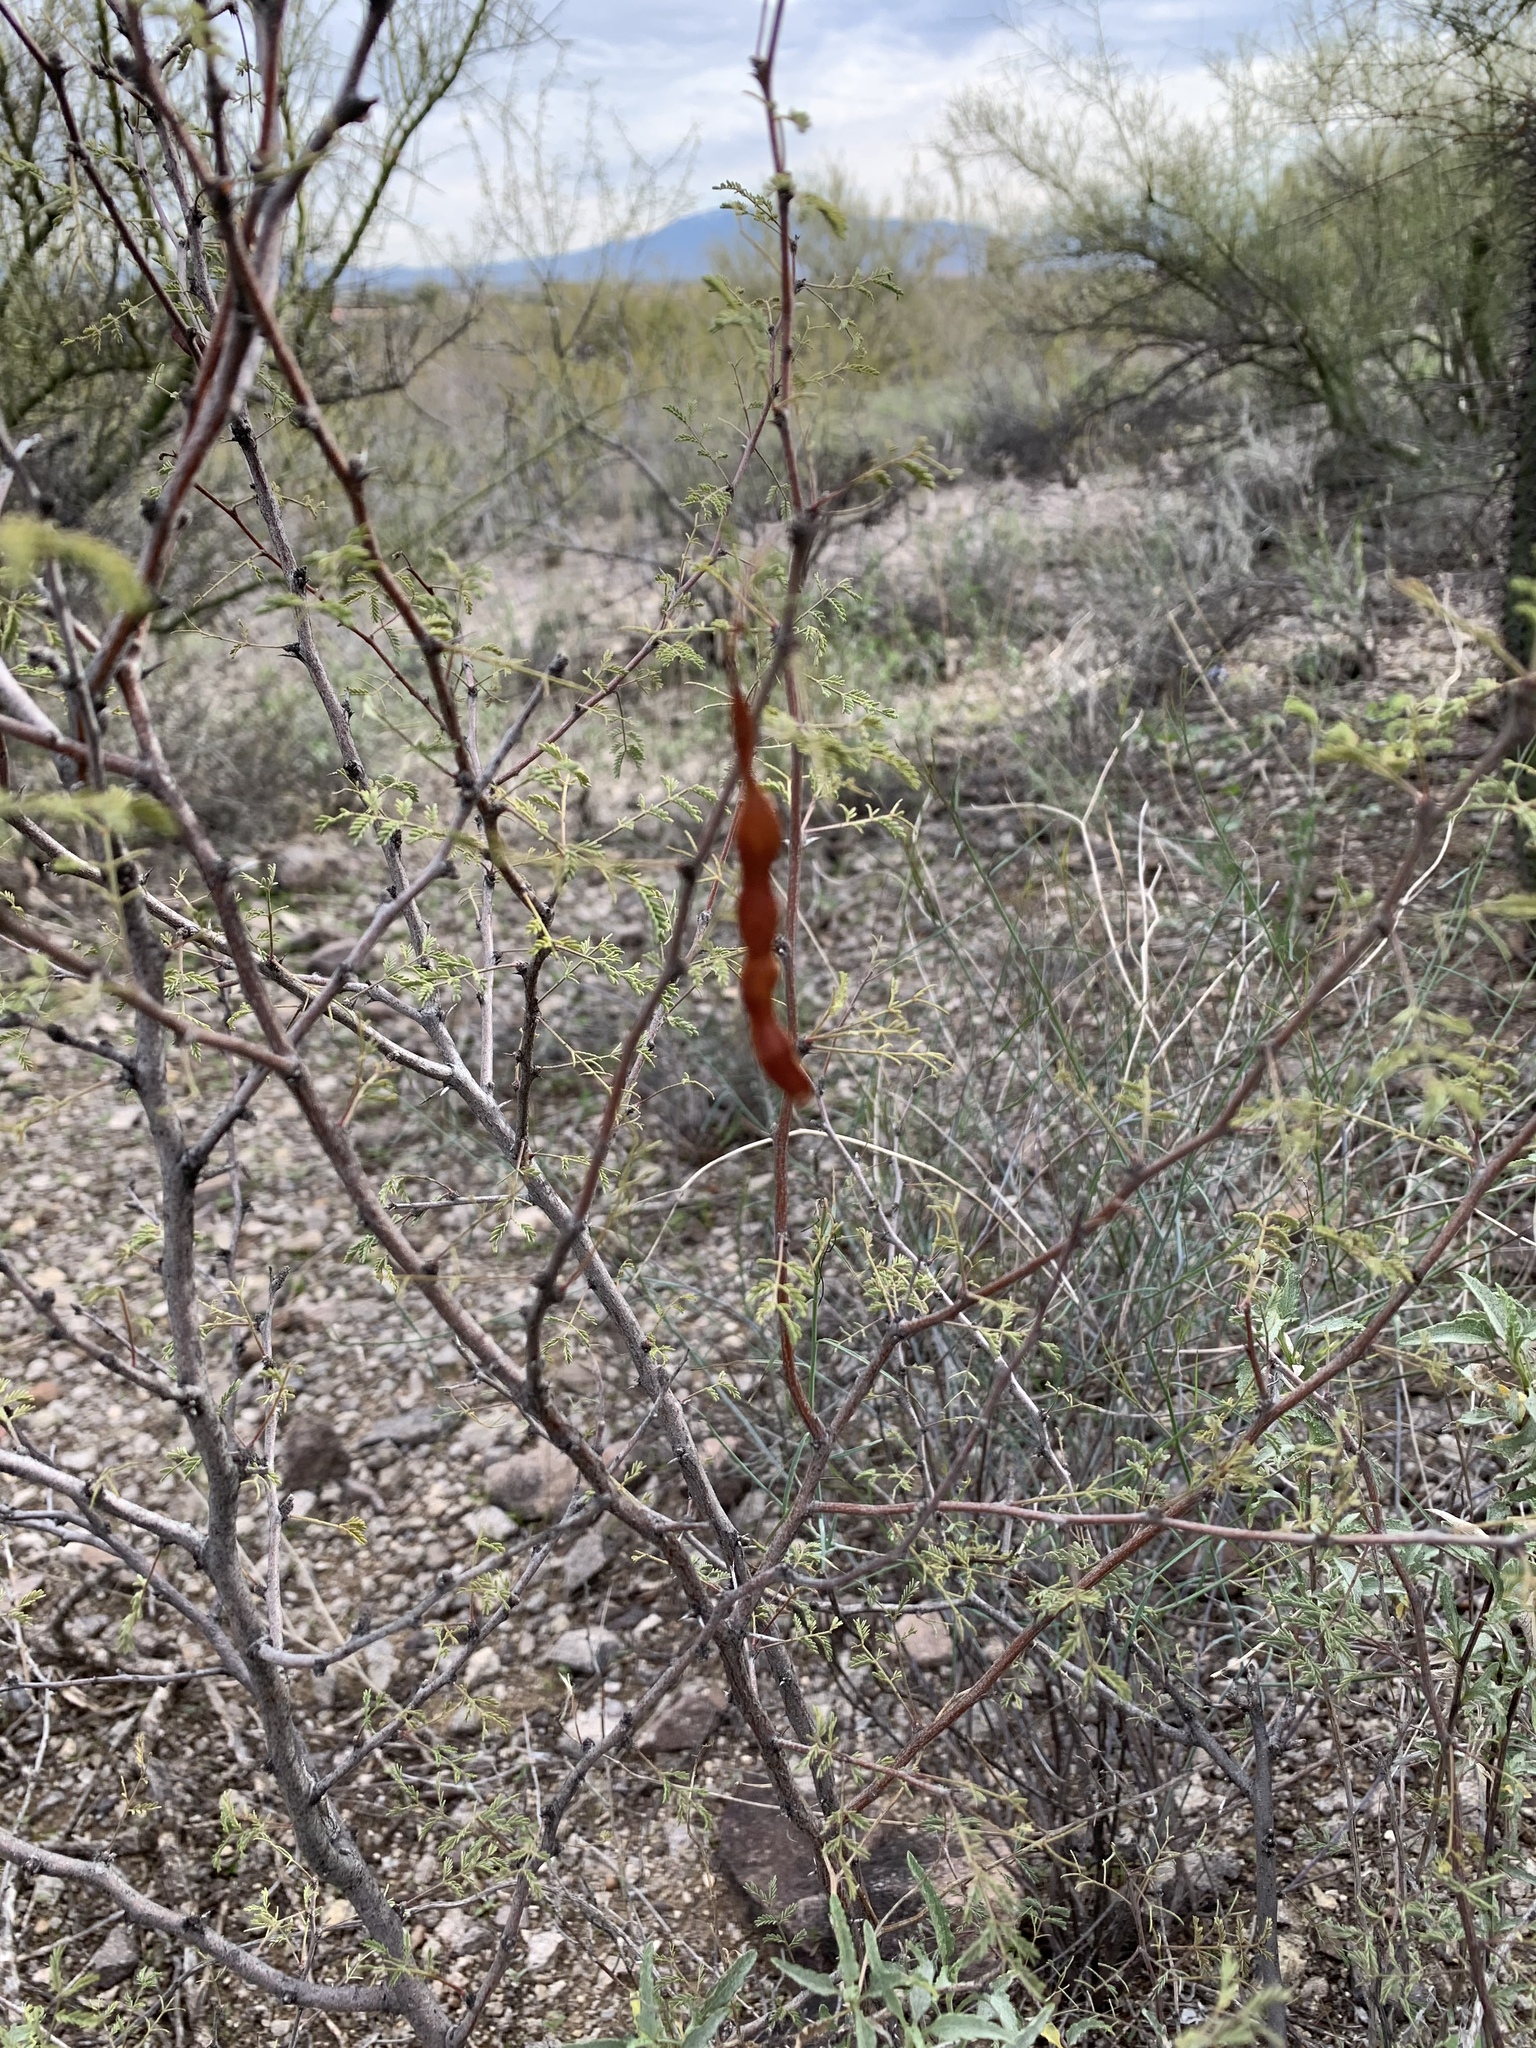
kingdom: Plantae
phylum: Tracheophyta
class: Magnoliopsida
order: Fabales
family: Fabaceae
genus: Vachellia
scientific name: Vachellia constricta
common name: Mescat acacia
